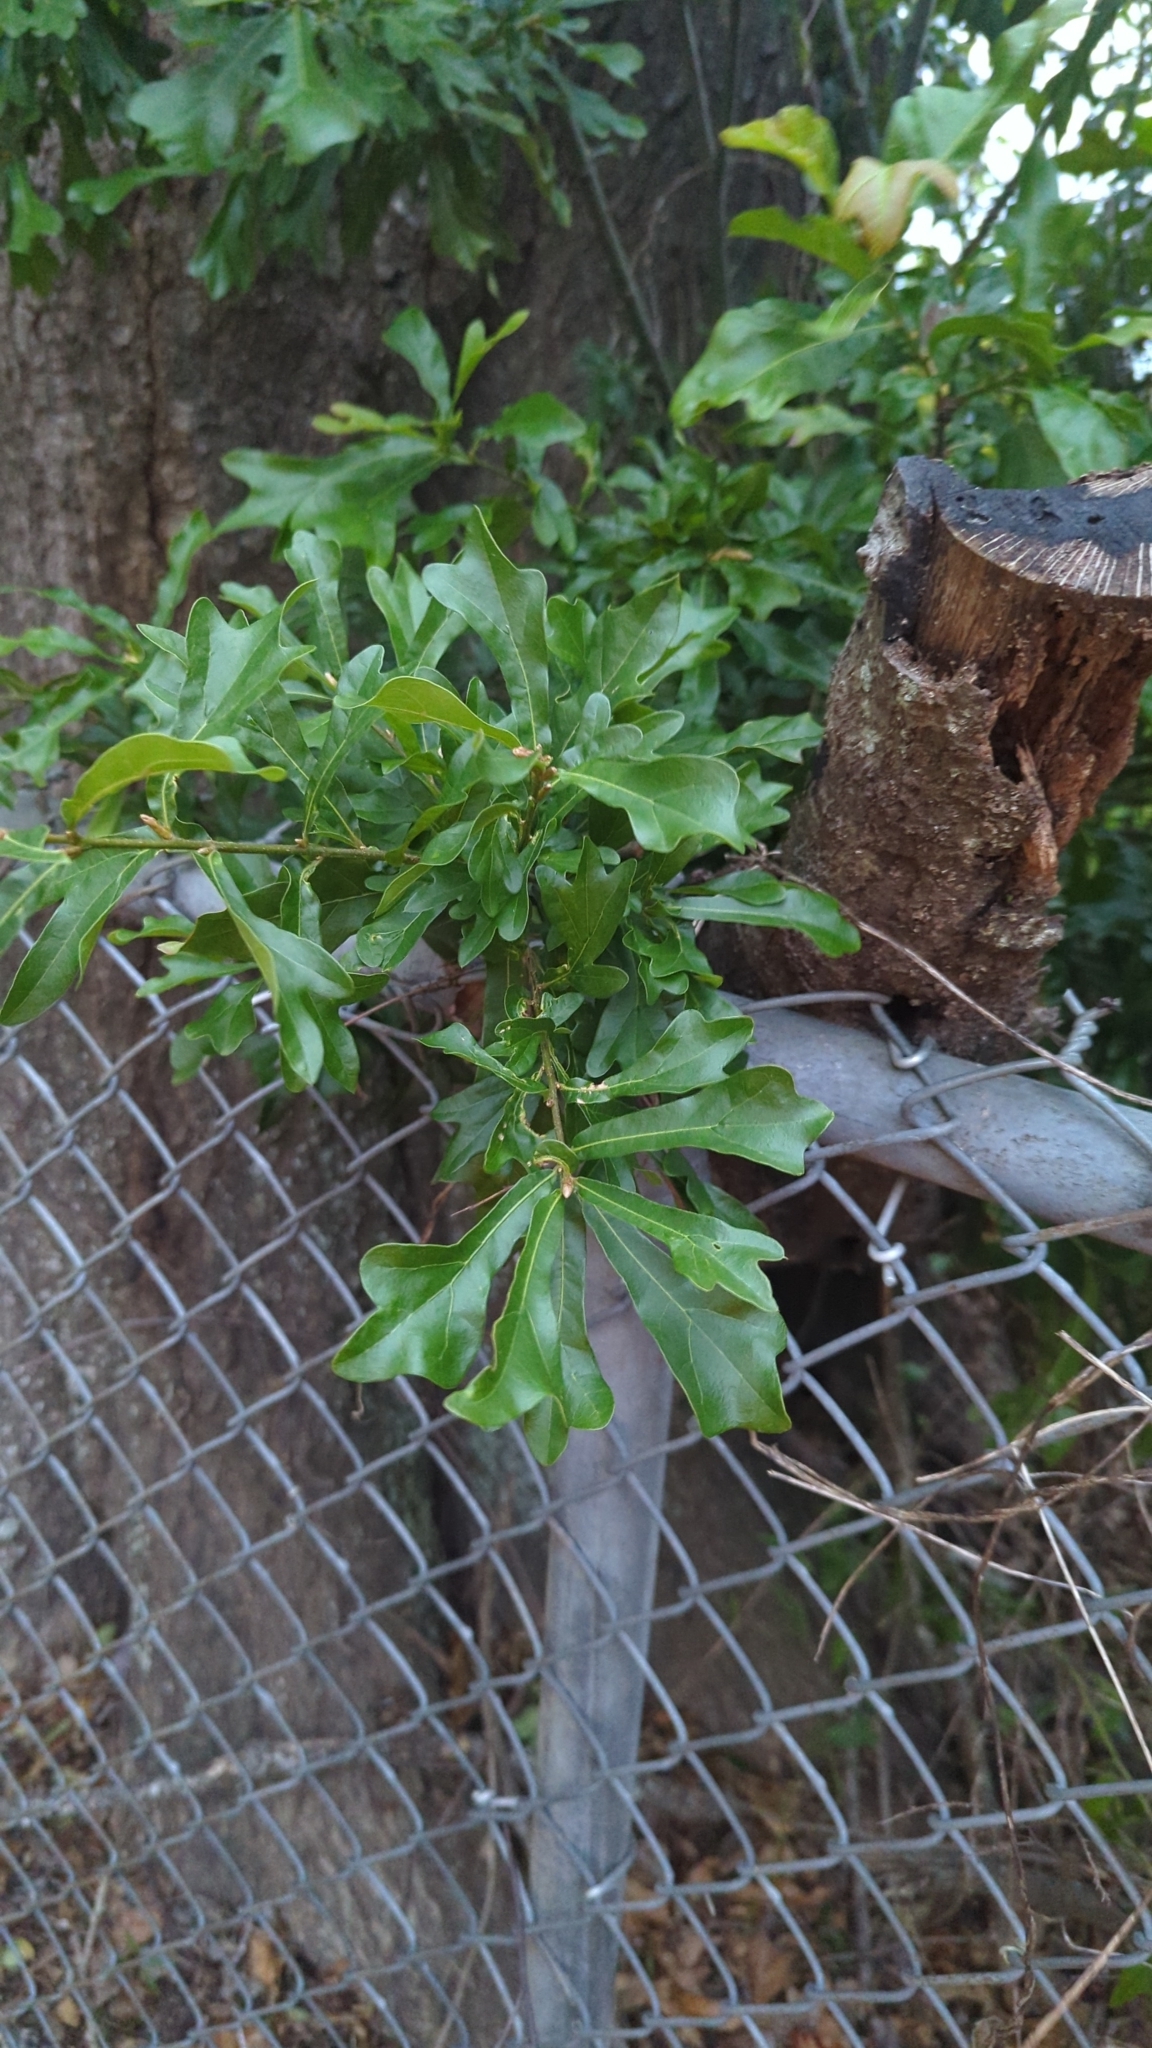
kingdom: Plantae
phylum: Tracheophyta
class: Magnoliopsida
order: Fagales
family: Fagaceae
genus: Quercus
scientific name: Quercus nigra
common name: Water oak
